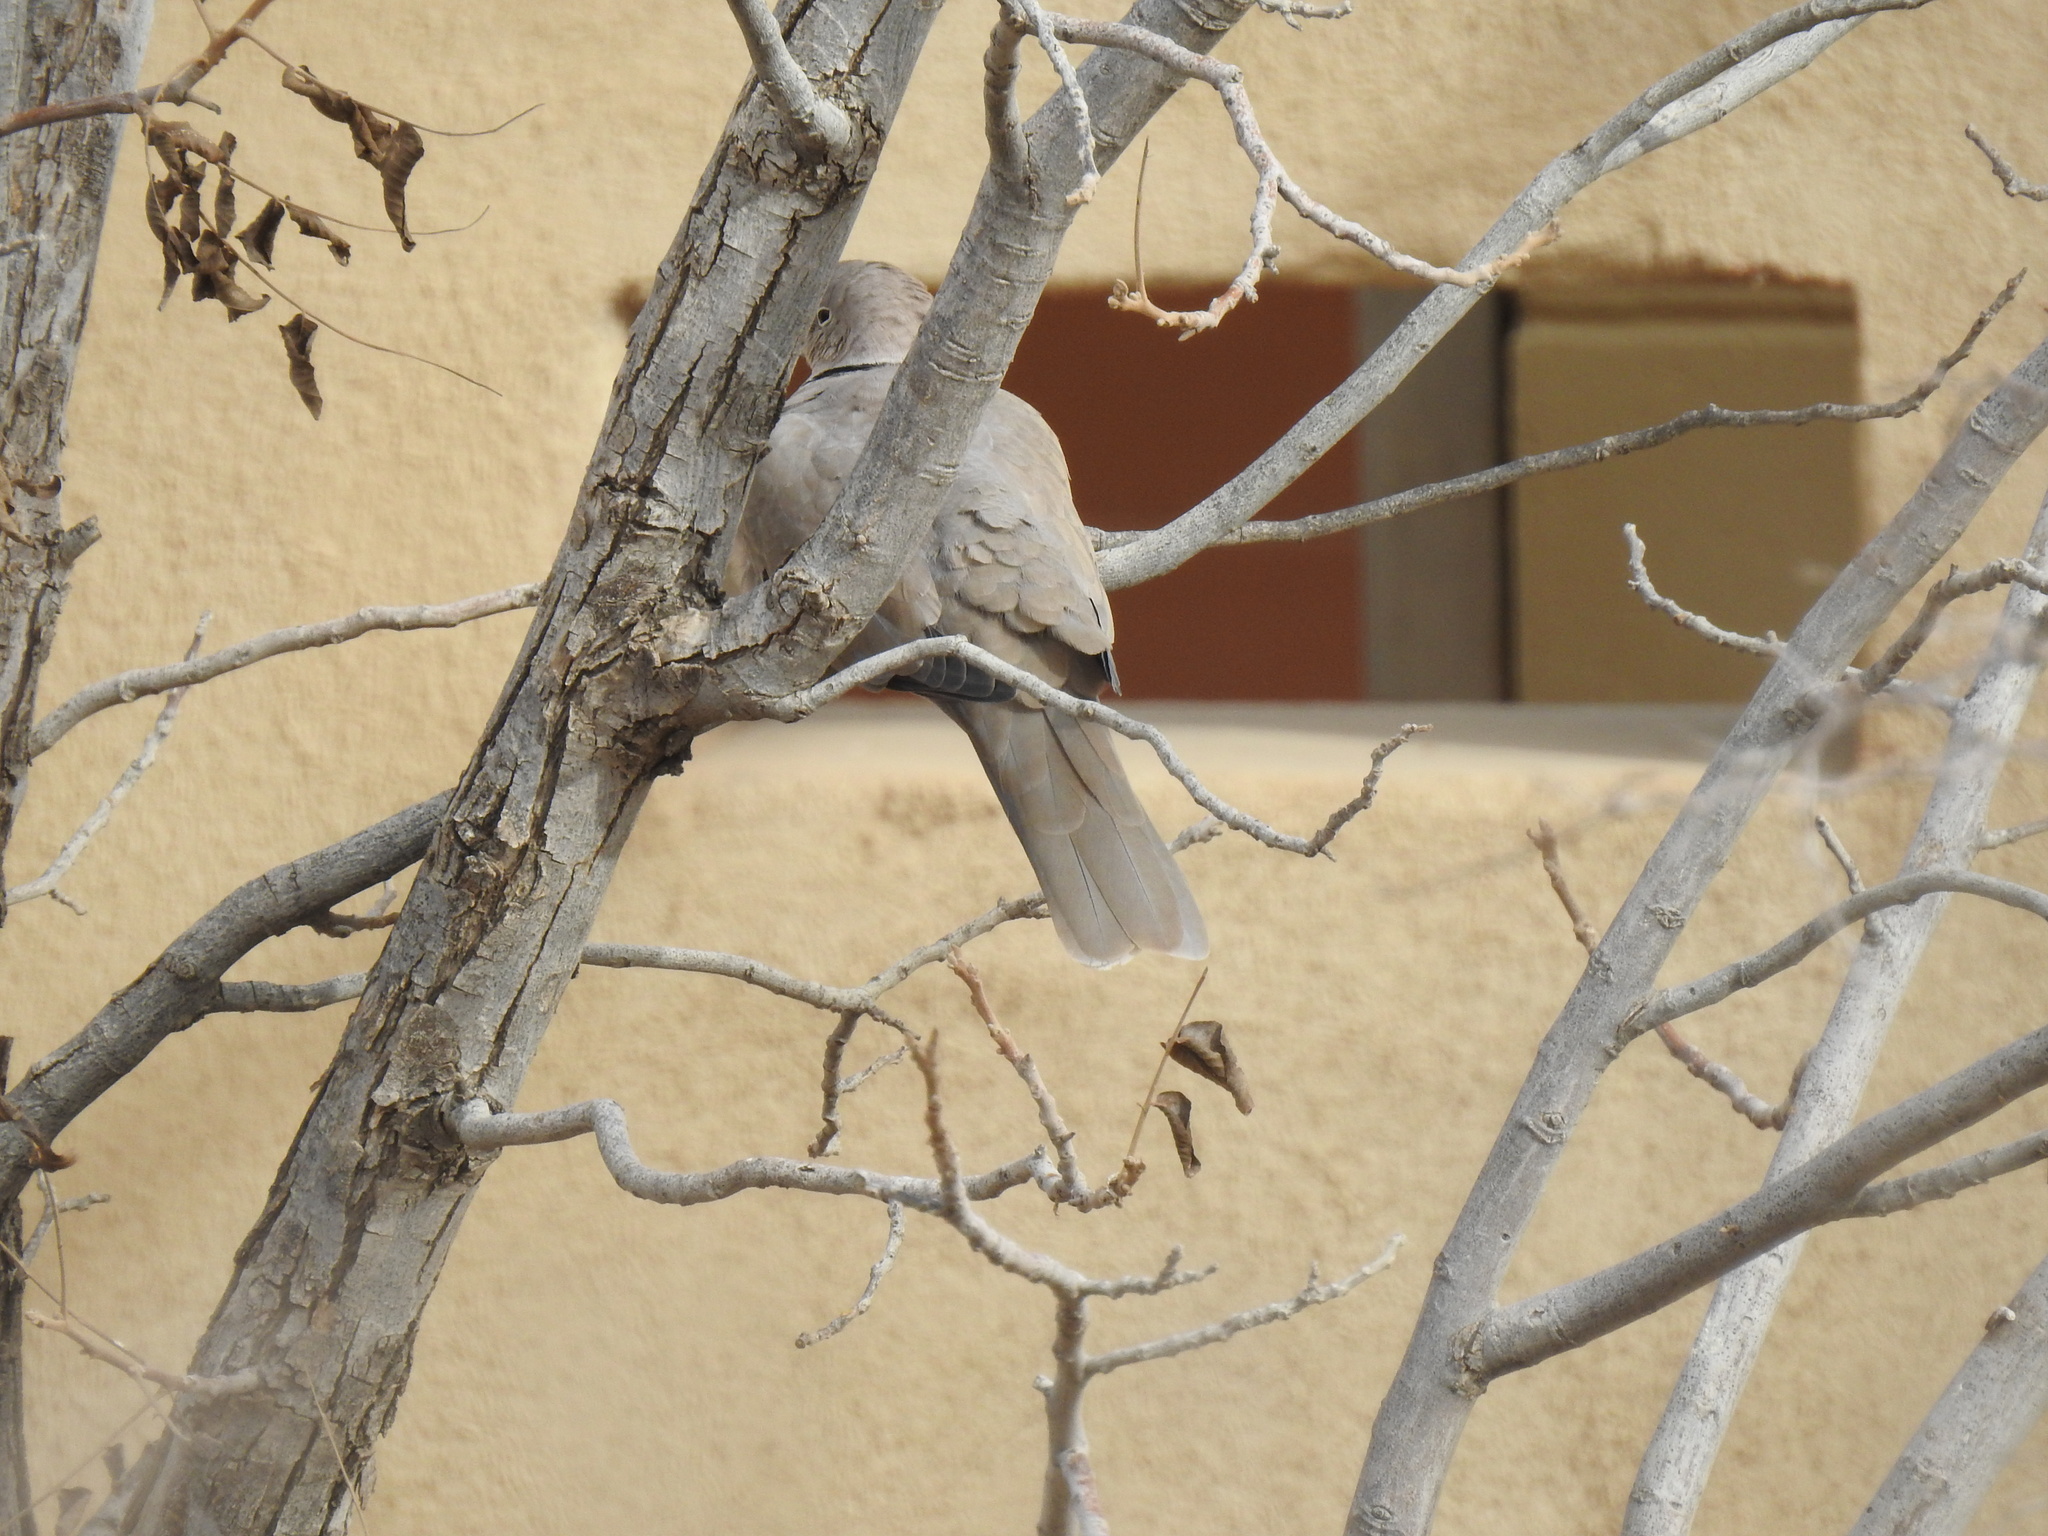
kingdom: Animalia
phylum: Chordata
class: Aves
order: Columbiformes
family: Columbidae
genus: Streptopelia
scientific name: Streptopelia decaocto
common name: Eurasian collared dove
